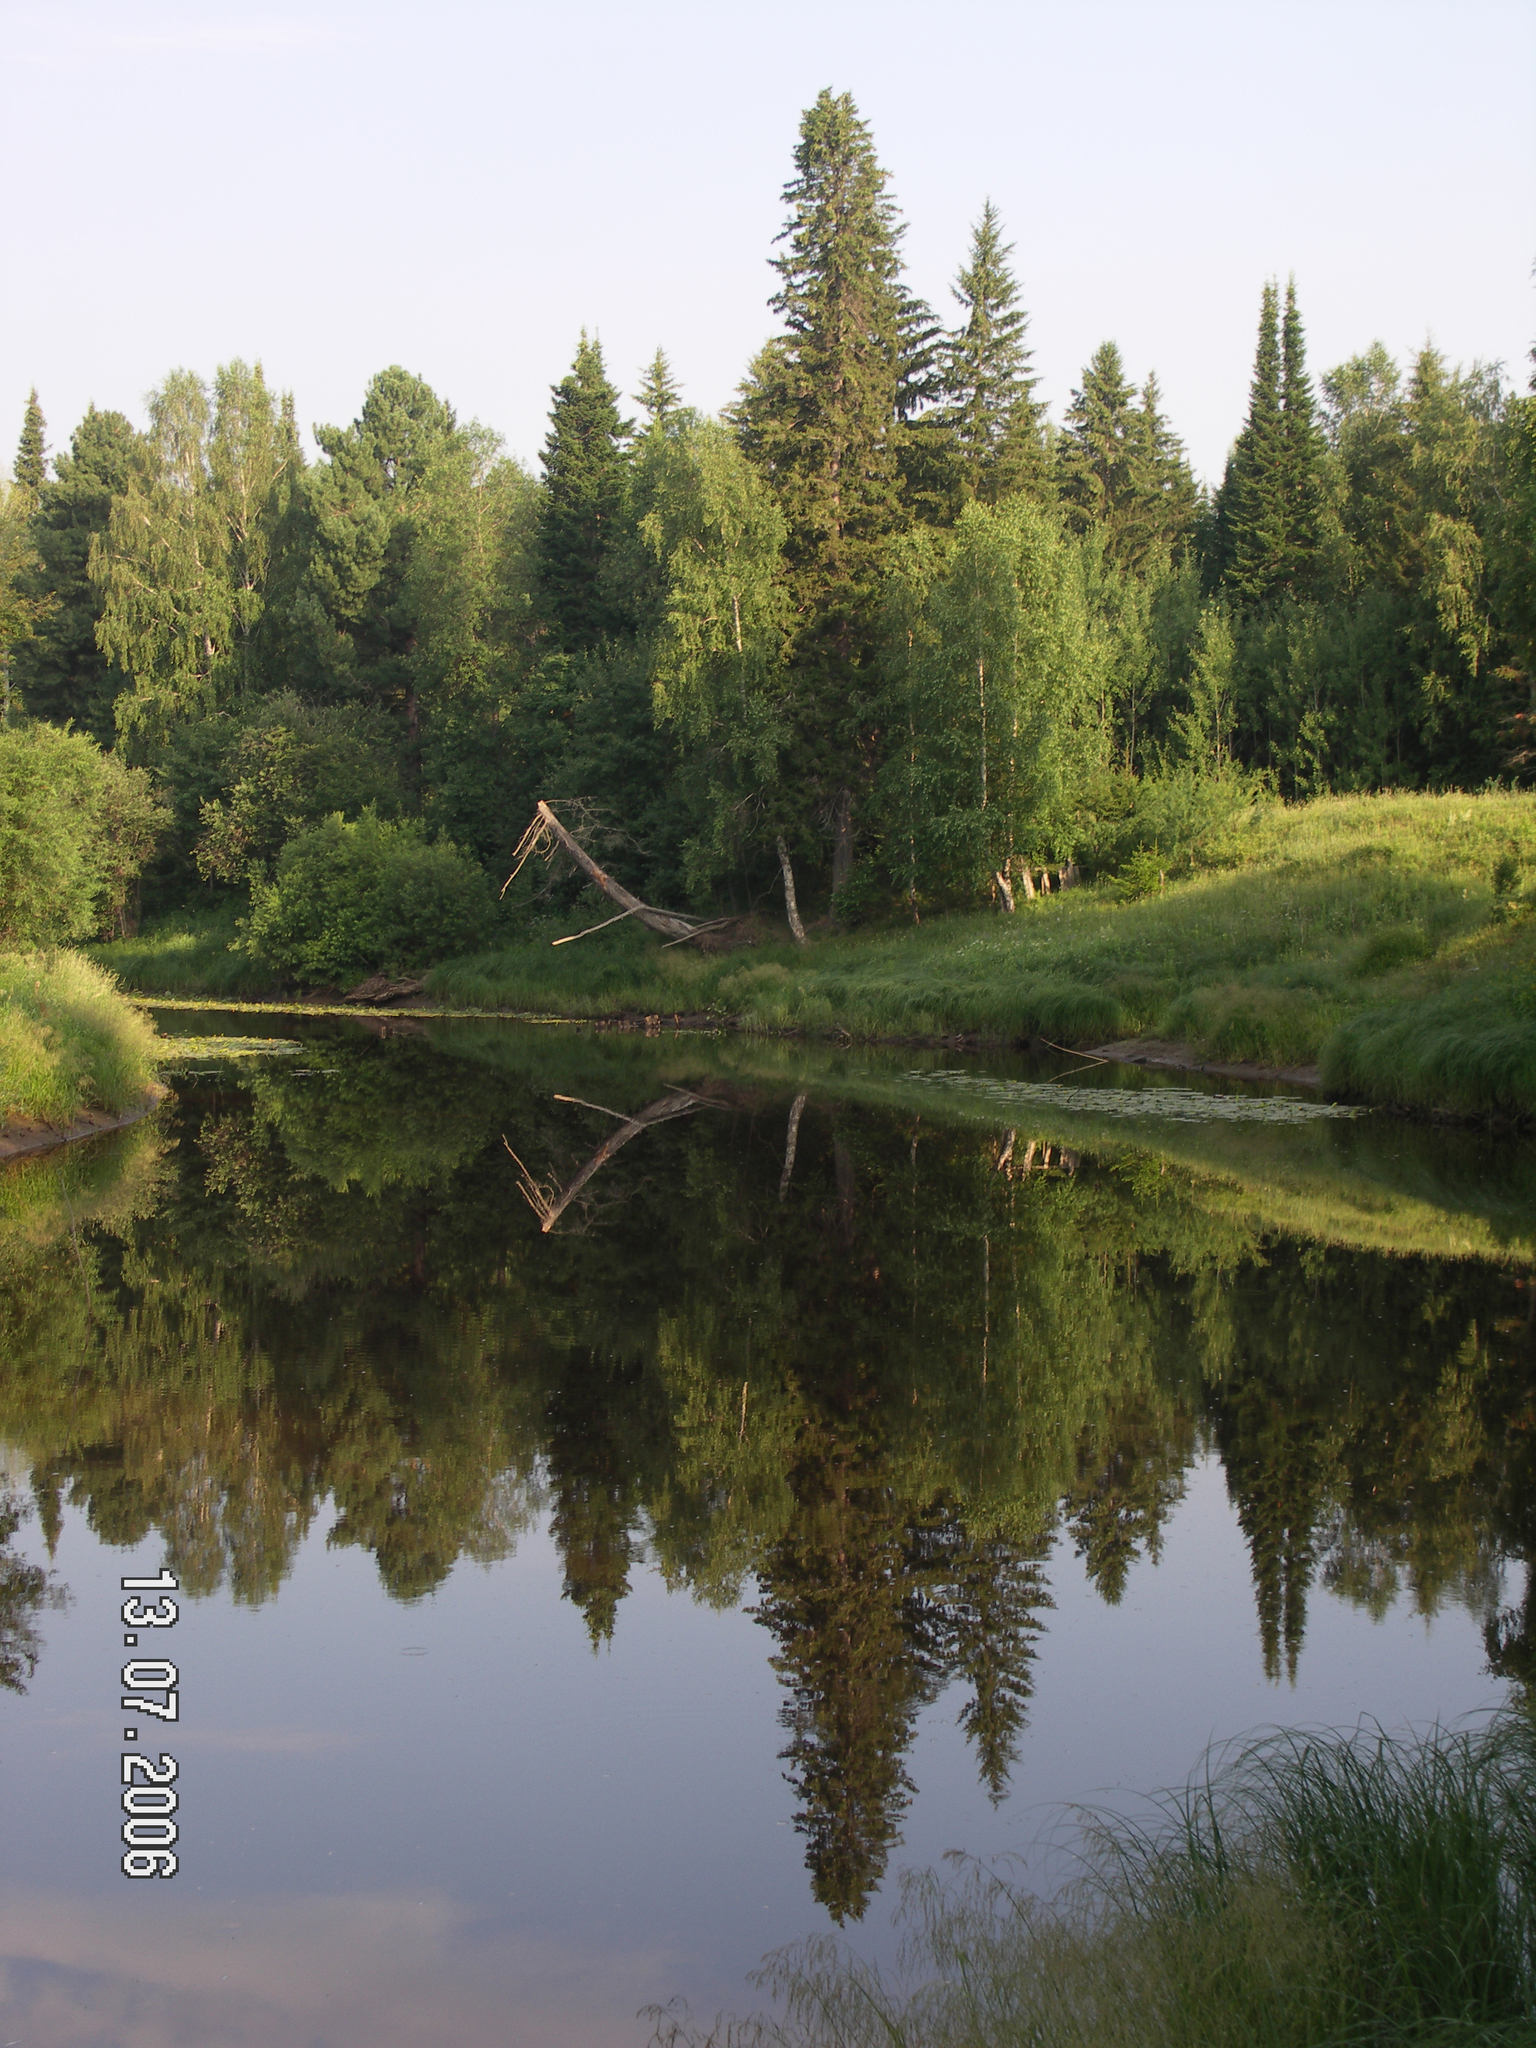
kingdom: Plantae
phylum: Tracheophyta
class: Pinopsida
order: Pinales
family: Pinaceae
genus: Picea
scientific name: Picea obovata
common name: Siberian spruce
